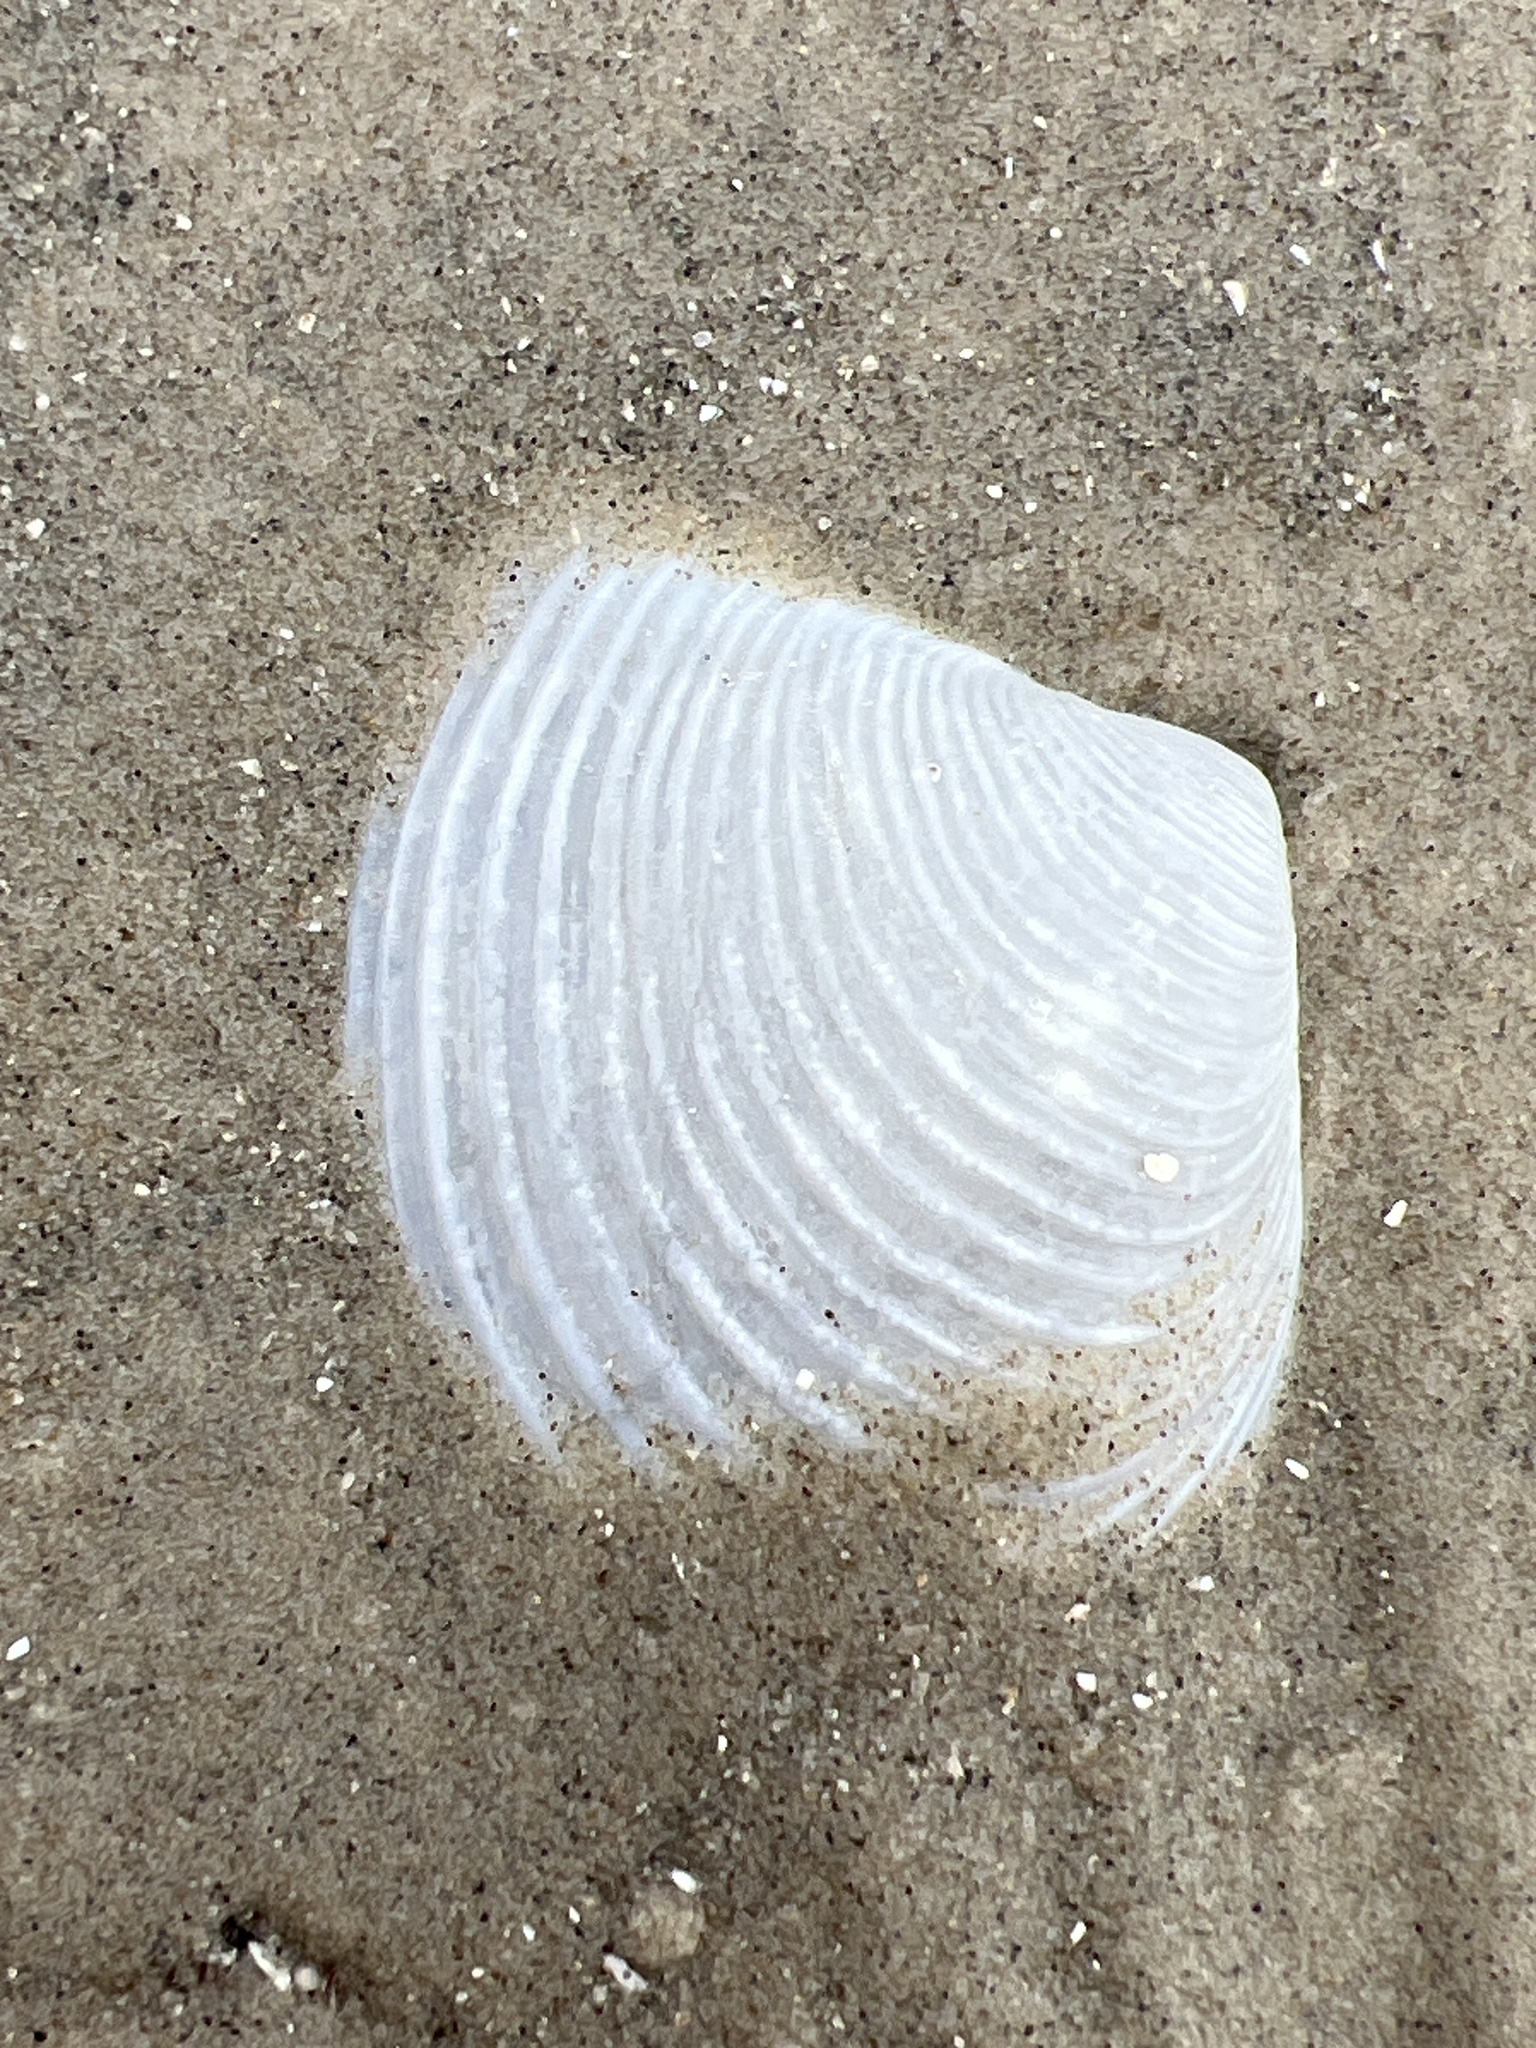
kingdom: Animalia
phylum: Mollusca
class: Bivalvia
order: Venerida
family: Anatinellidae
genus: Raeta
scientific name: Raeta plicatella
